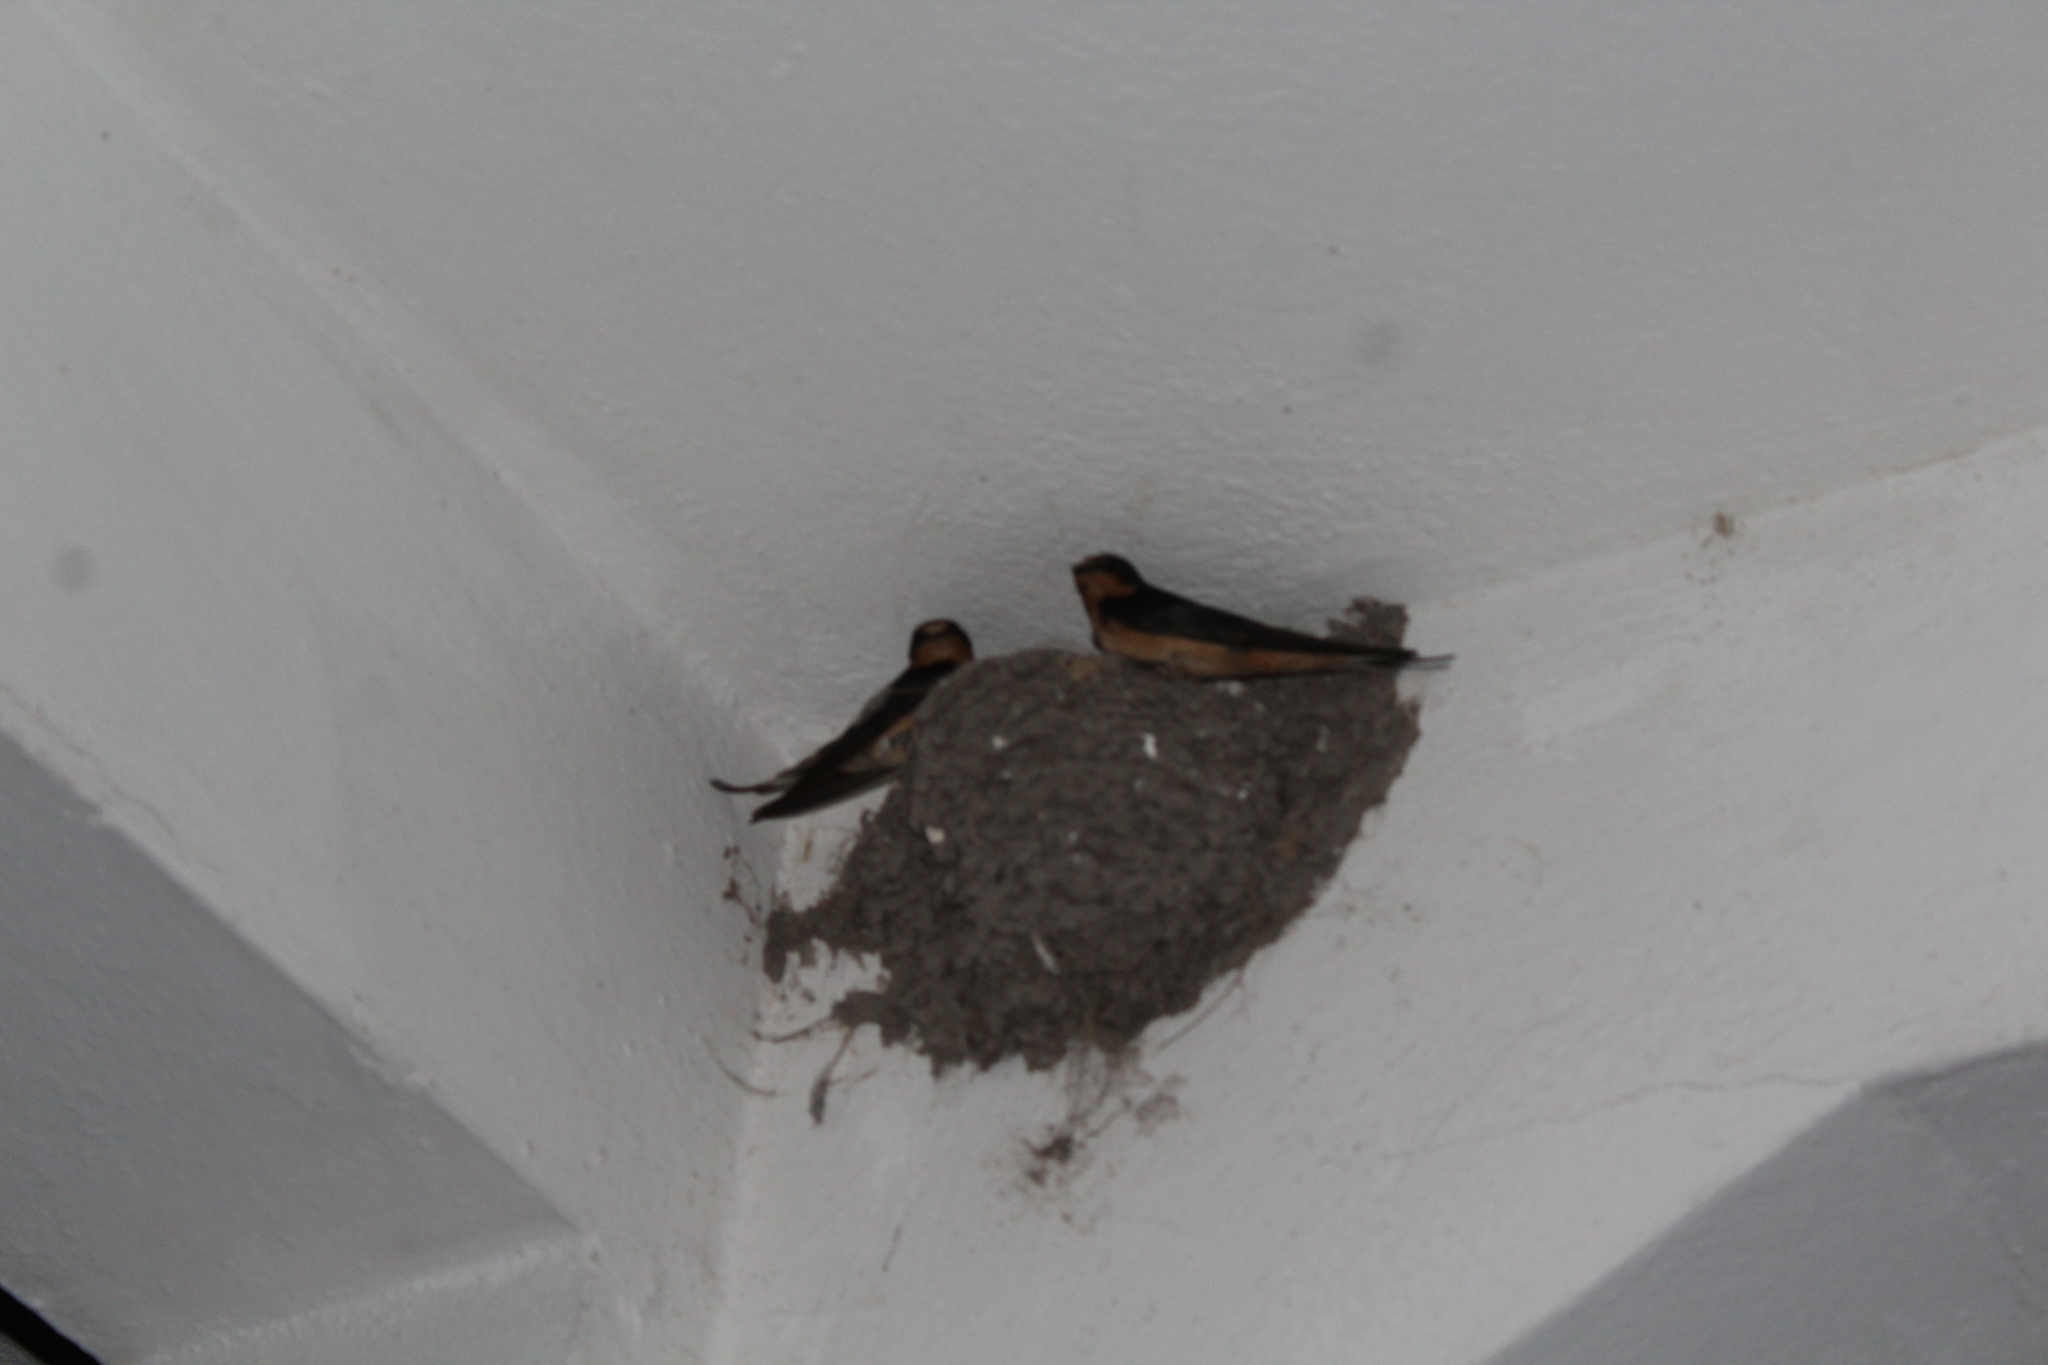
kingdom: Animalia
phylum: Chordata
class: Aves
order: Passeriformes
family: Hirundinidae
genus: Hirundo
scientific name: Hirundo rustica
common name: Barn swallow
